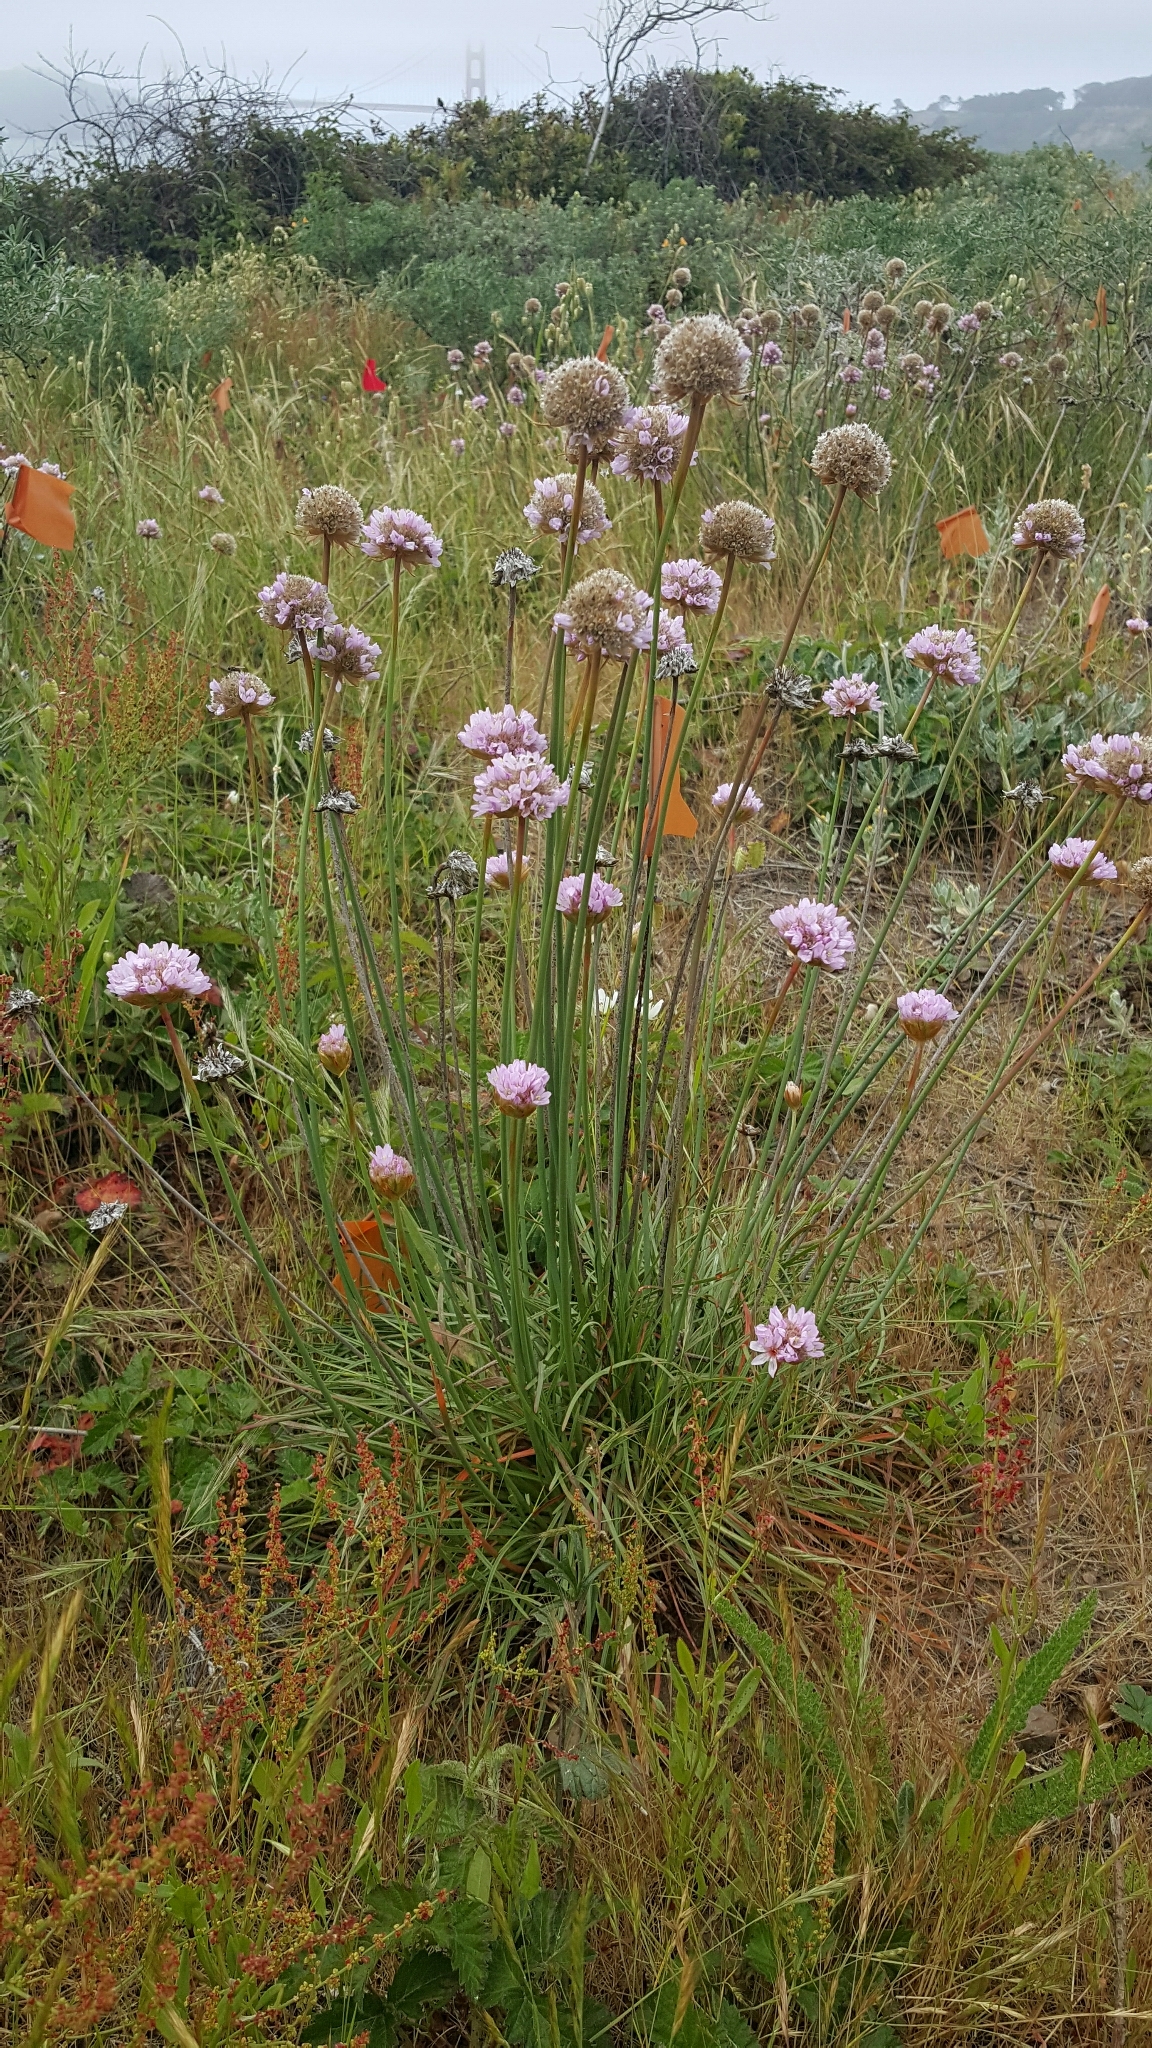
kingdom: Plantae
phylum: Tracheophyta
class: Magnoliopsida
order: Caryophyllales
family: Plumbaginaceae
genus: Armeria
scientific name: Armeria maritima
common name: Thrift
